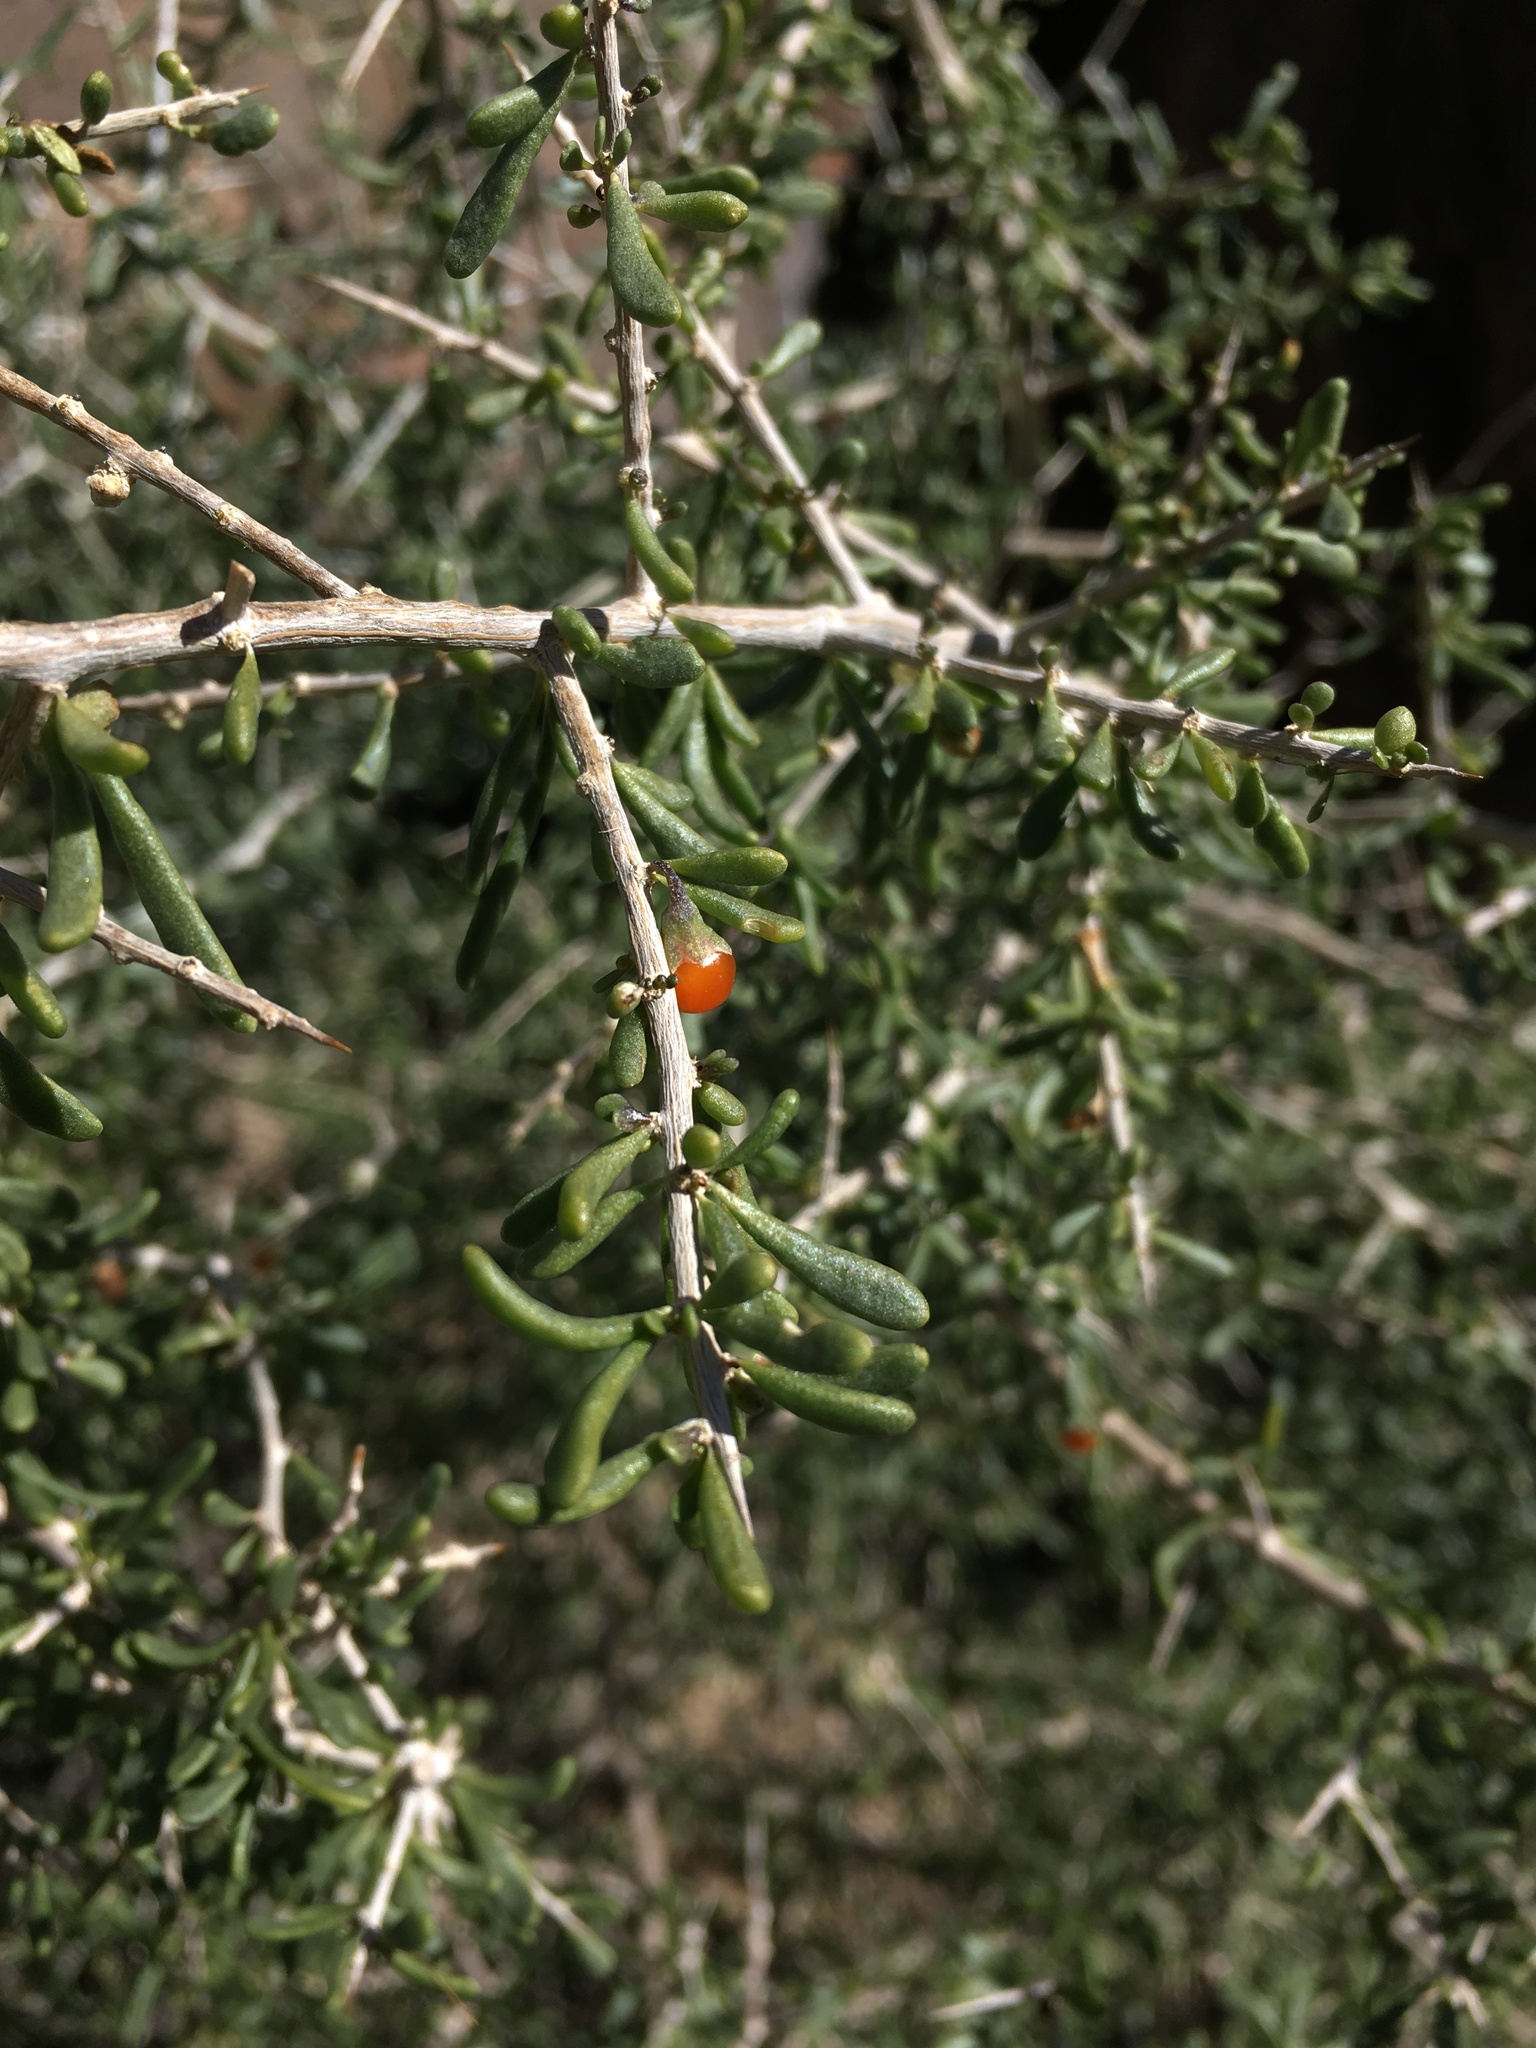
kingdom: Plantae
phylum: Tracheophyta
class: Magnoliopsida
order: Solanales
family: Solanaceae
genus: Lycium
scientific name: Lycium andersonii
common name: Water-jacket
